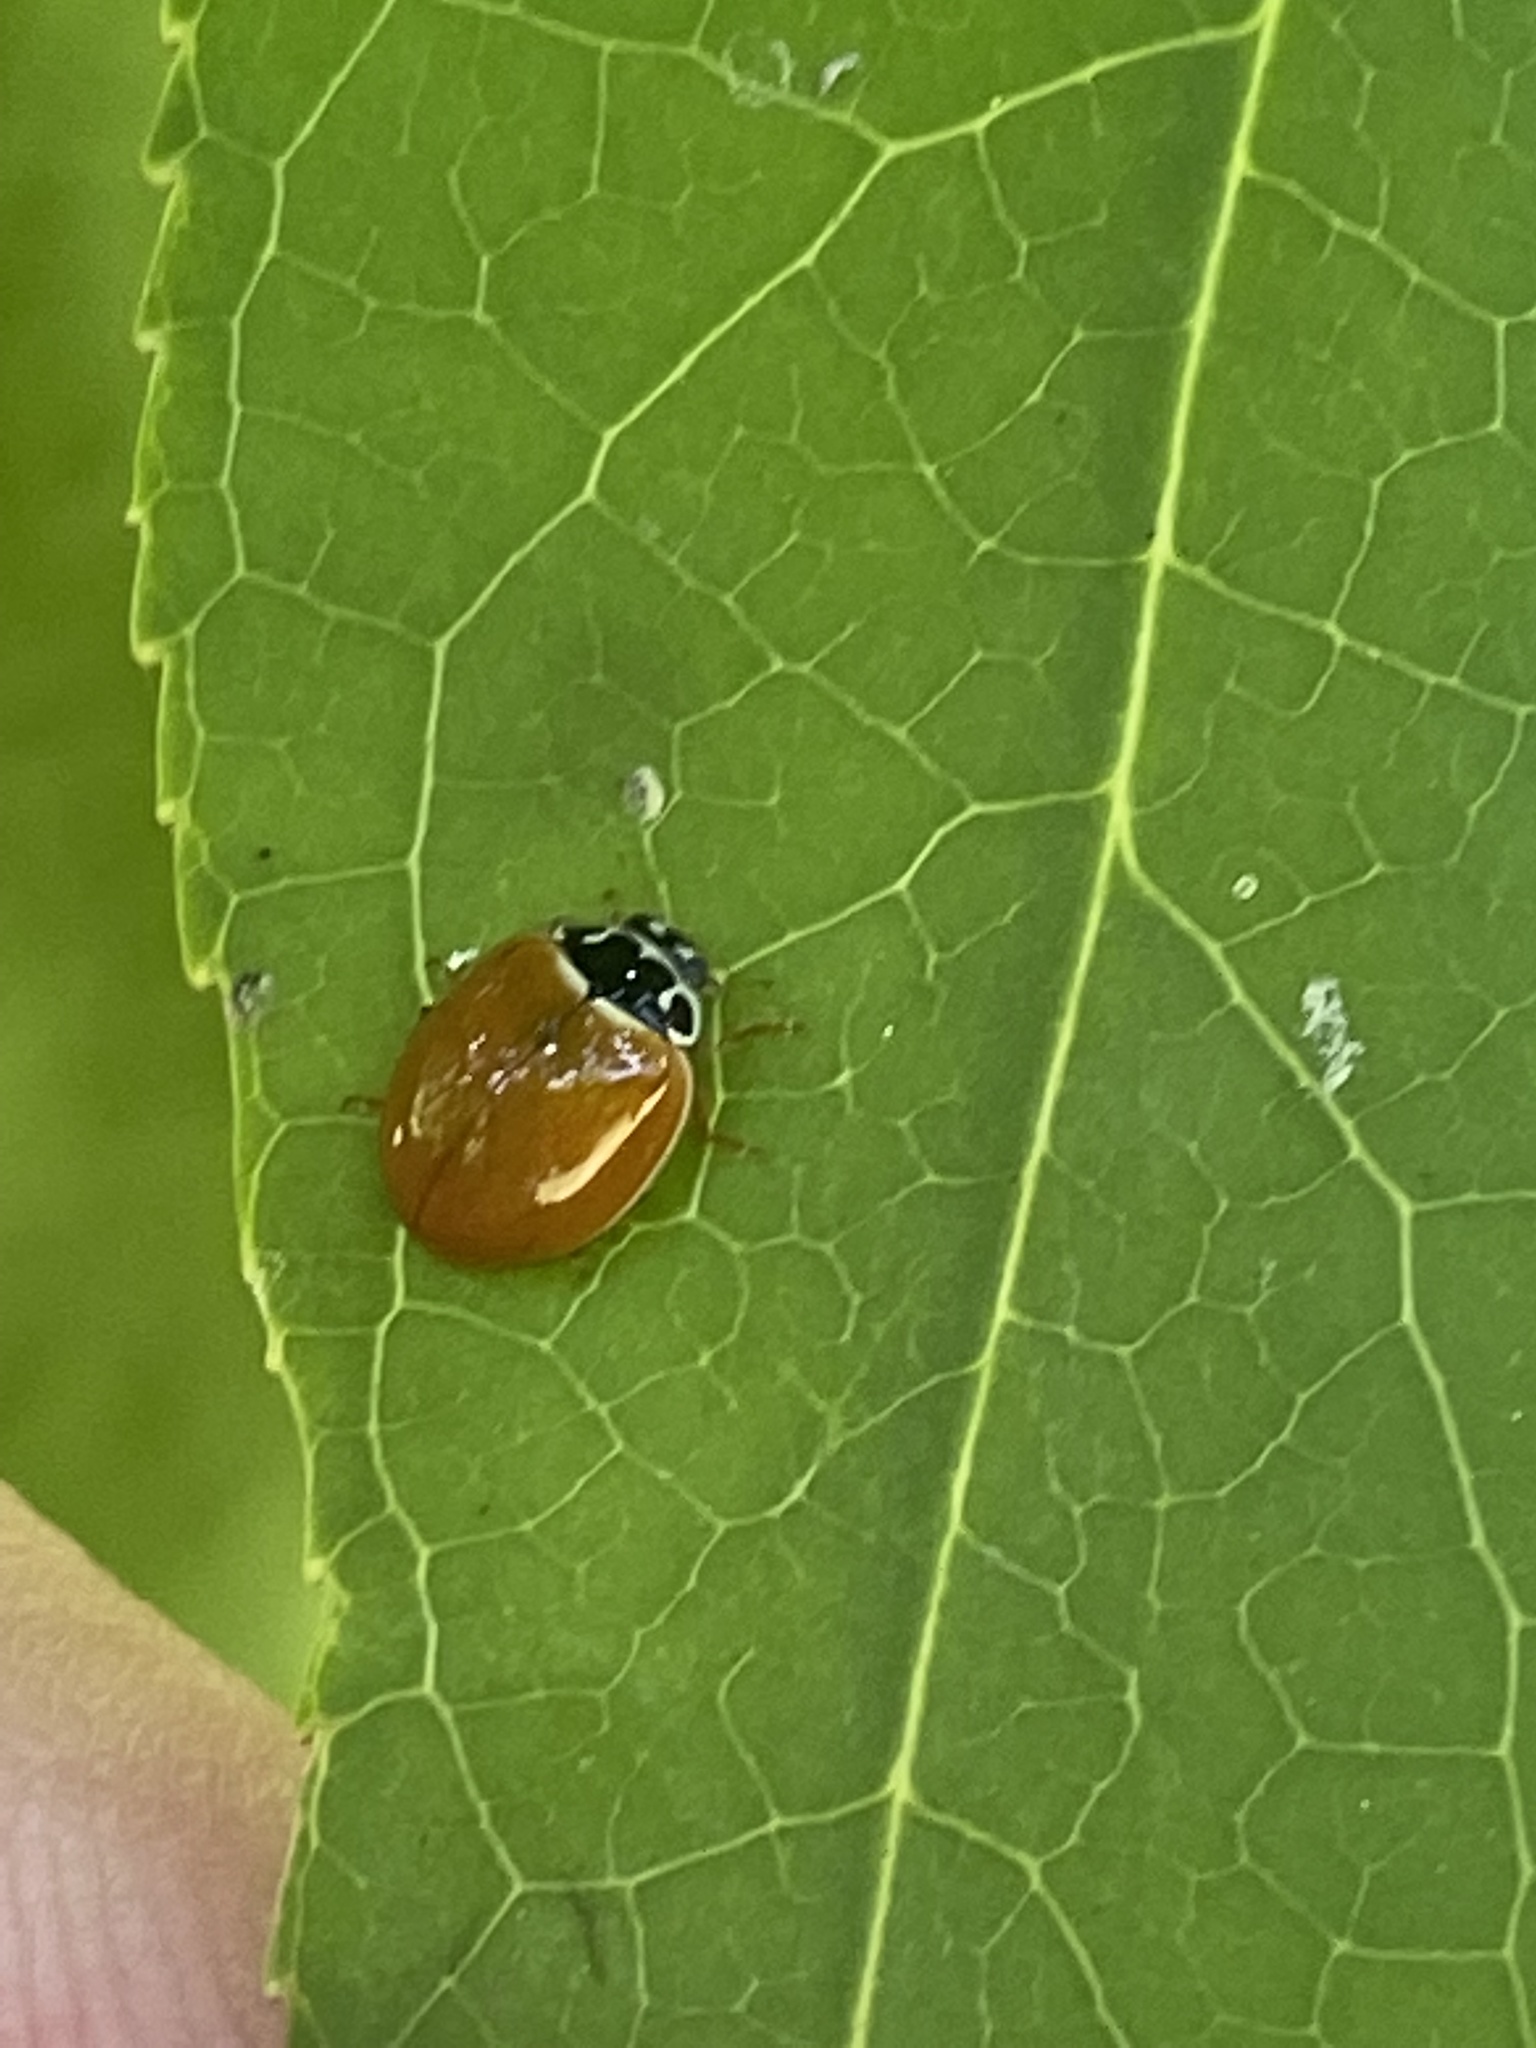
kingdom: Animalia
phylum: Arthropoda
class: Insecta
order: Coleoptera
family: Coccinellidae
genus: Cycloneda
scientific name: Cycloneda munda
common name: Polished lady beetle
